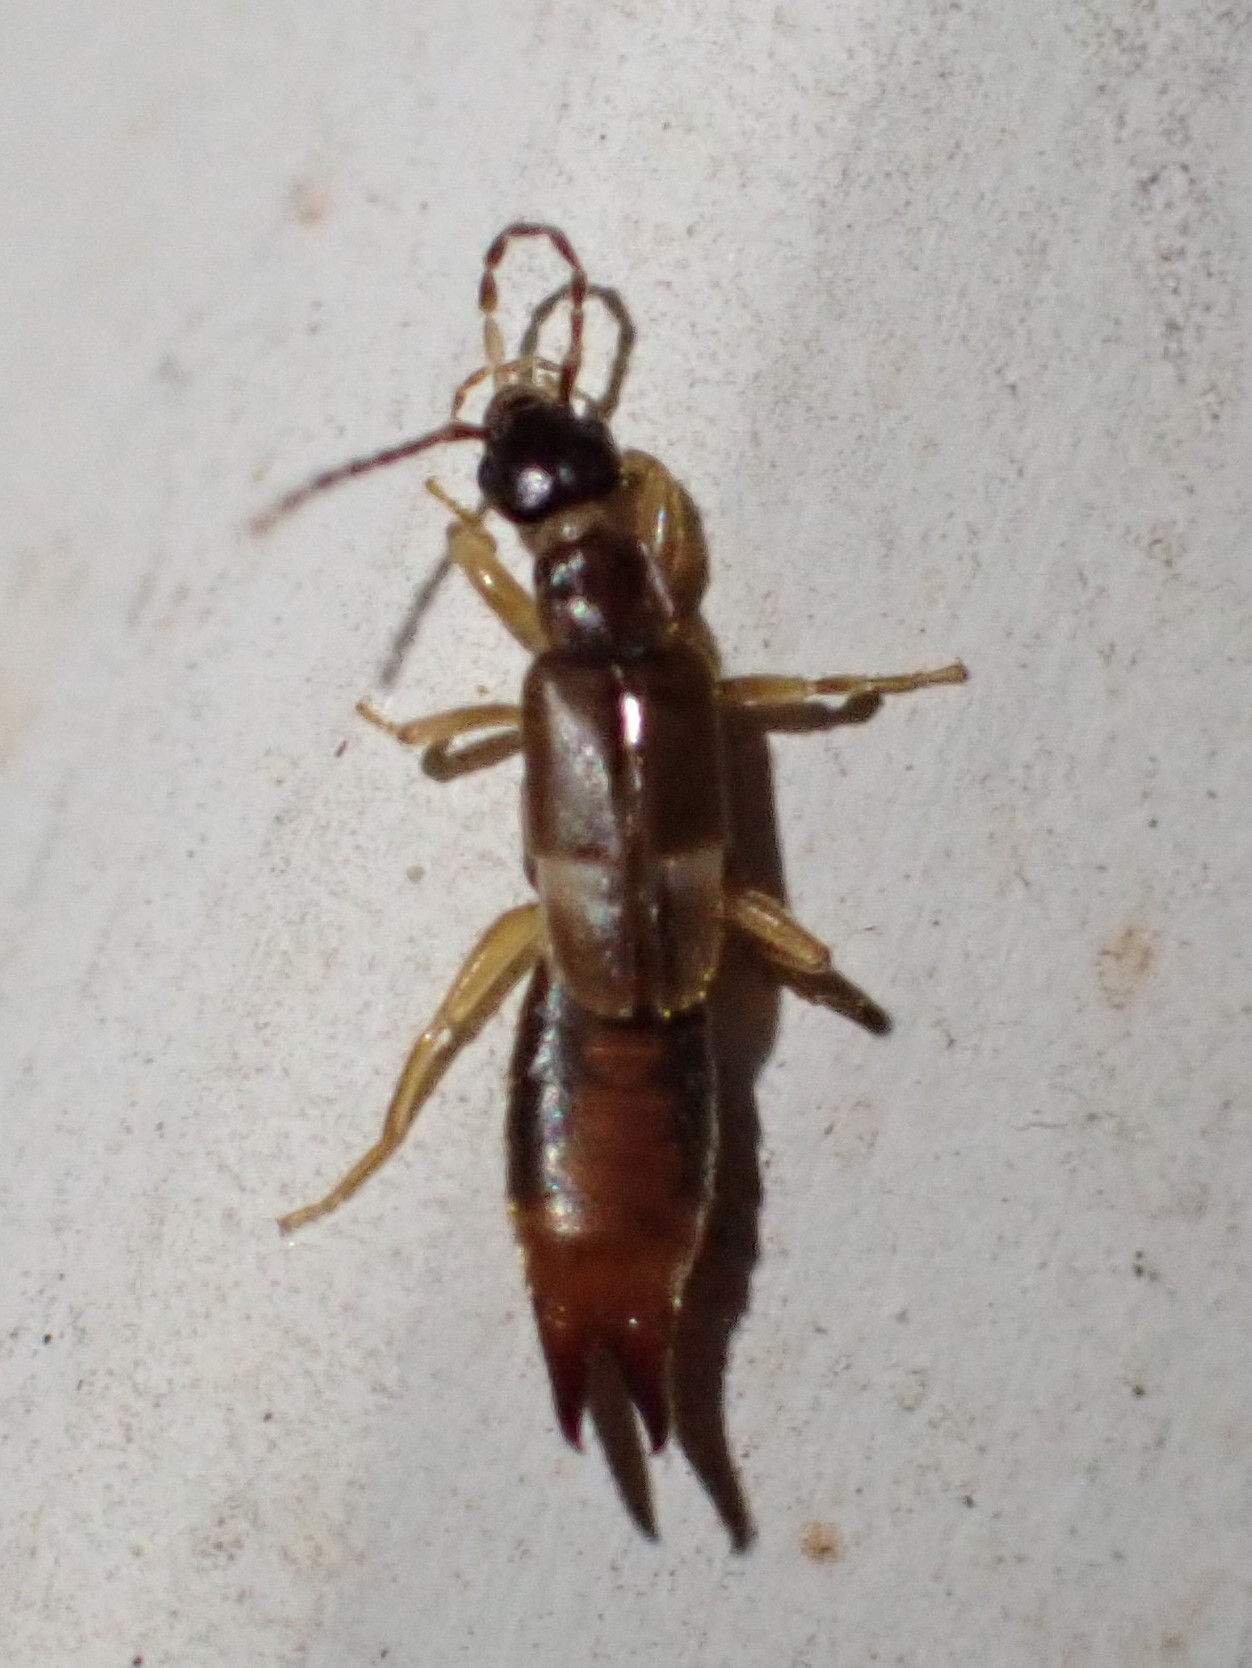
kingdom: Animalia
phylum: Arthropoda
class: Insecta
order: Dermaptera
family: Spongiphoridae
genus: Labia
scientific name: Labia minor
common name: Lesser earwig
